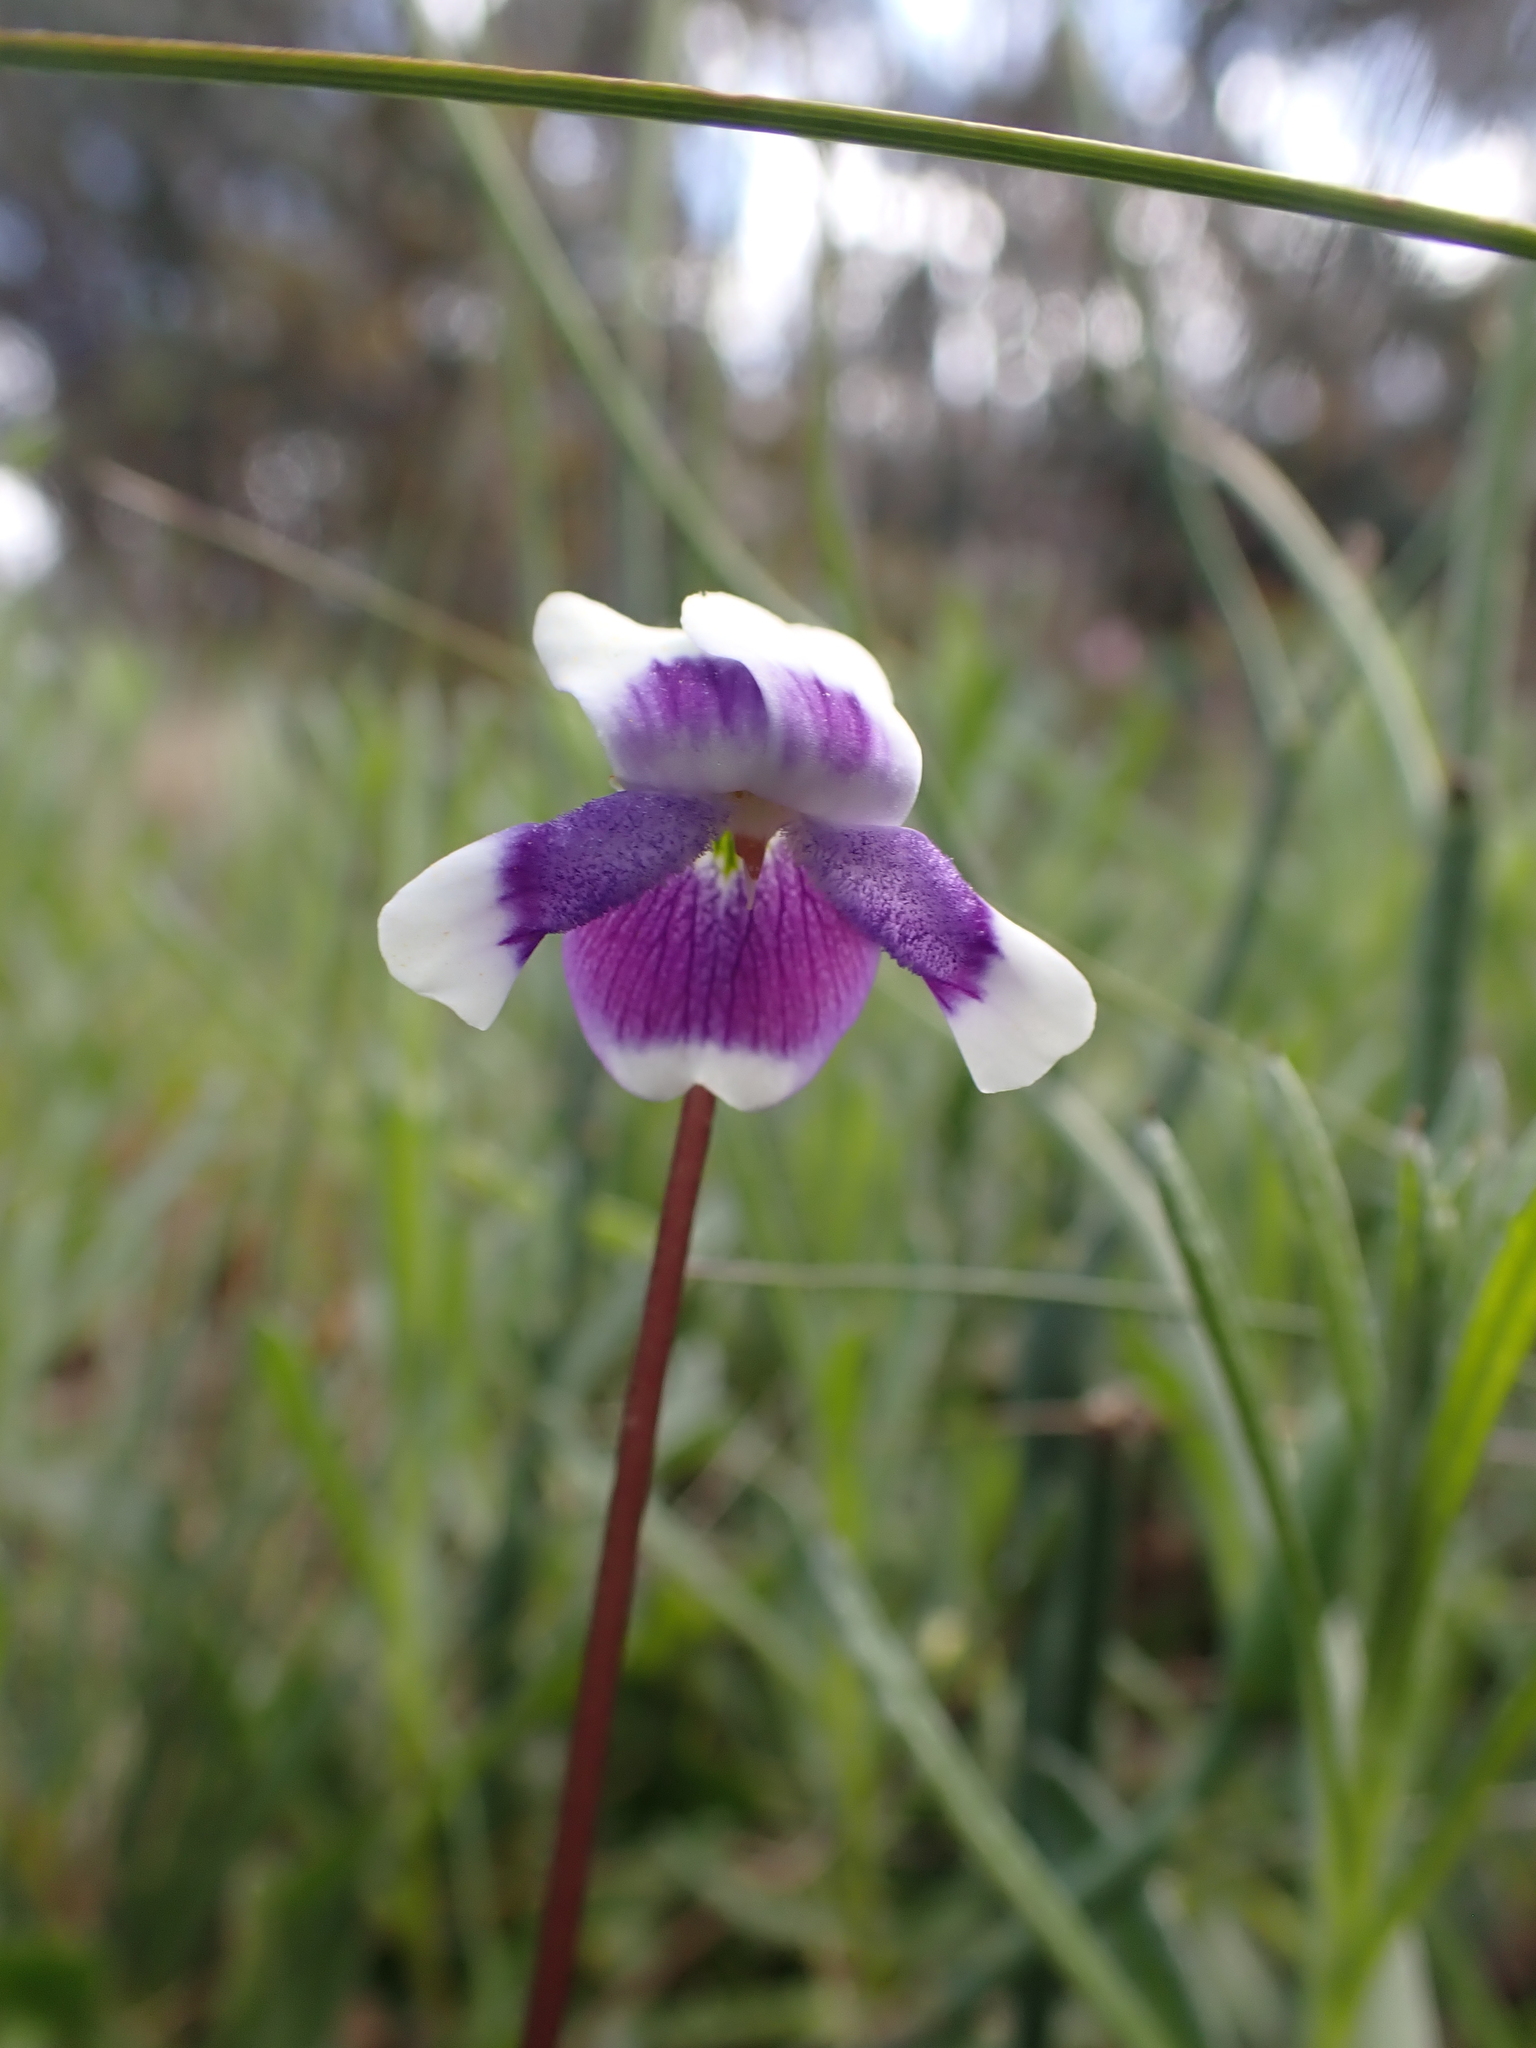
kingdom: Plantae
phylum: Tracheophyta
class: Magnoliopsida
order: Malpighiales
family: Violaceae
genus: Viola
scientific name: Viola eminens
